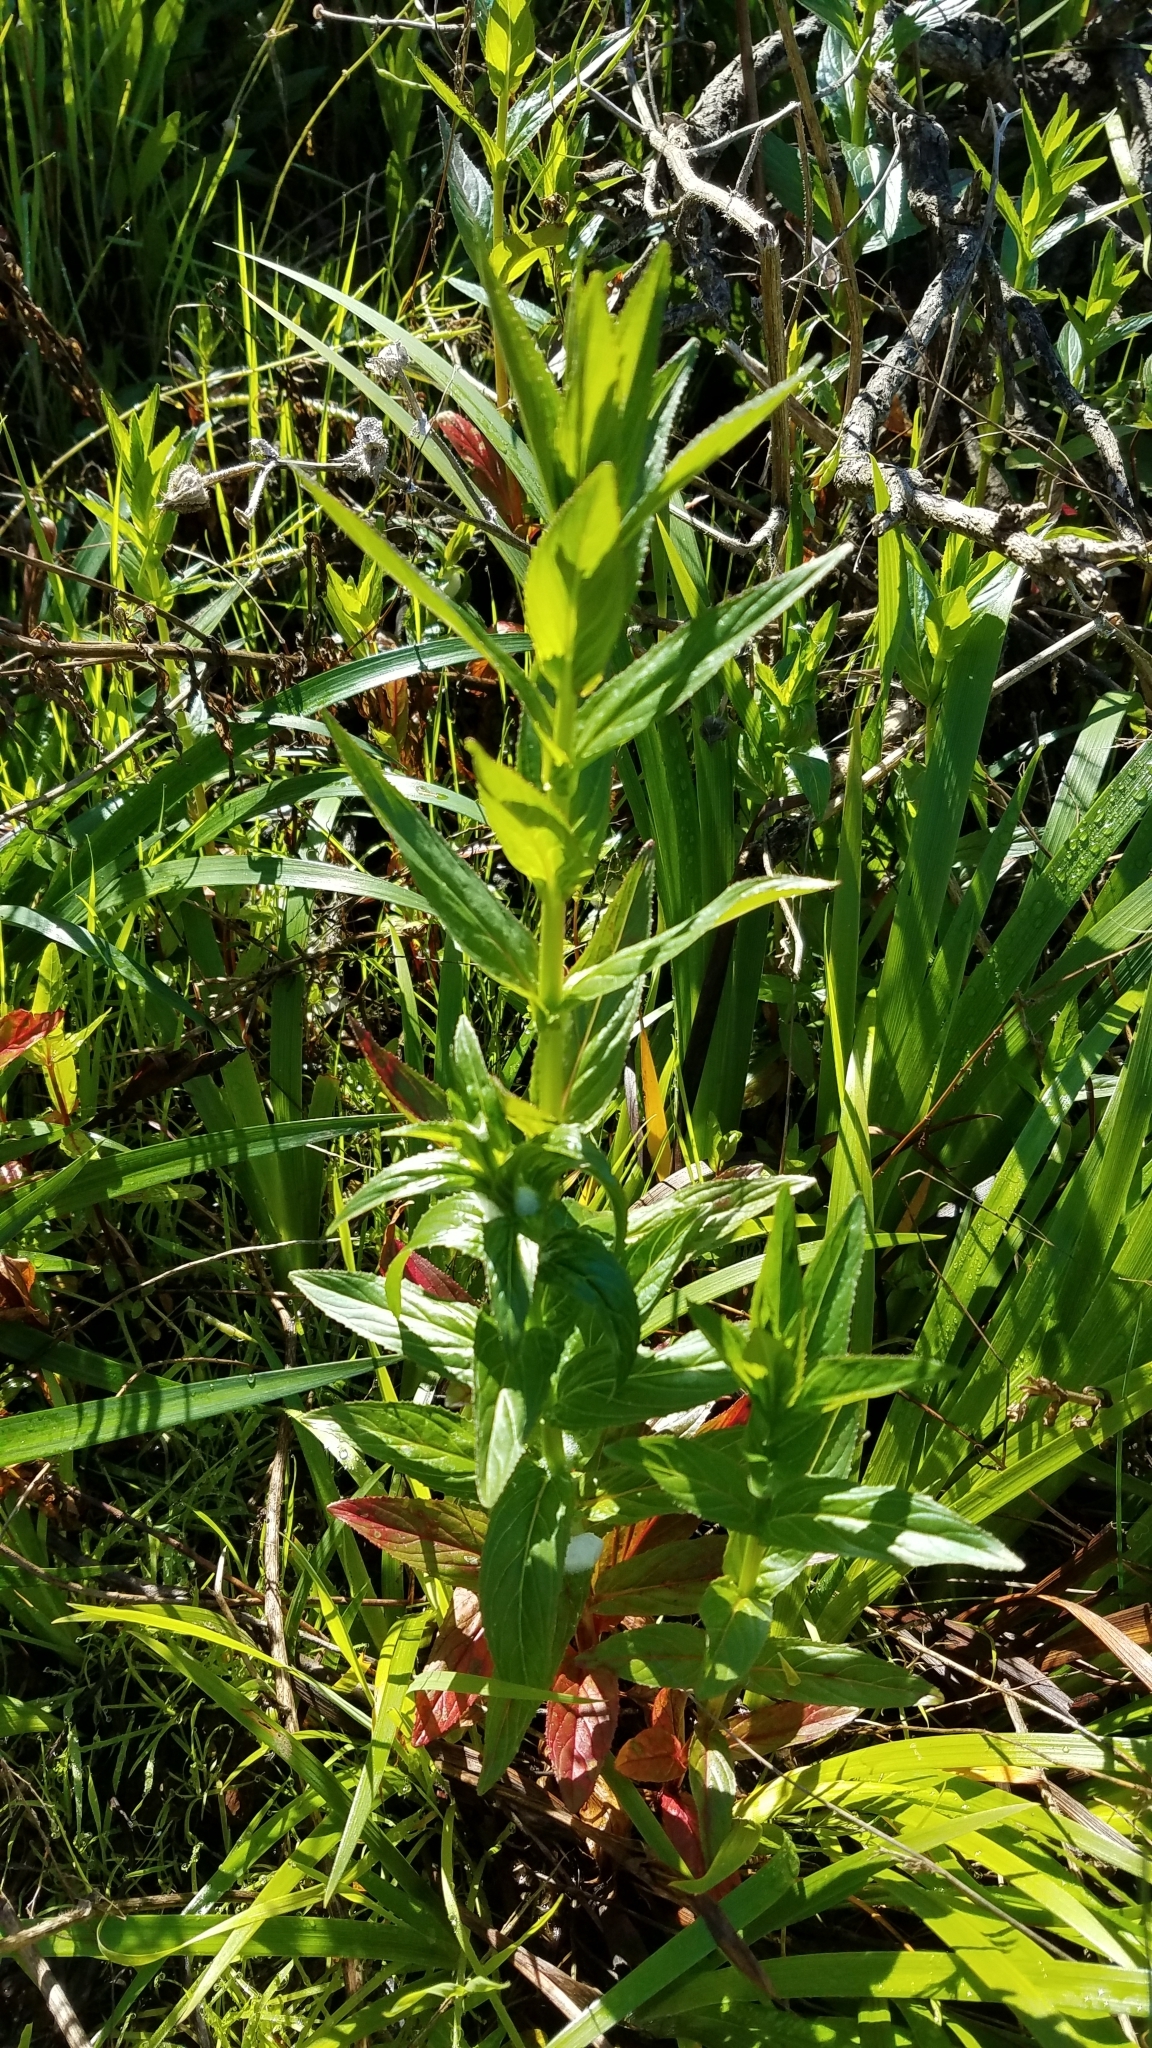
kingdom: Plantae
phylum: Tracheophyta
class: Magnoliopsida
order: Myrtales
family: Onagraceae
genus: Epilobium
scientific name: Epilobium ciliatum
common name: American willowherb
